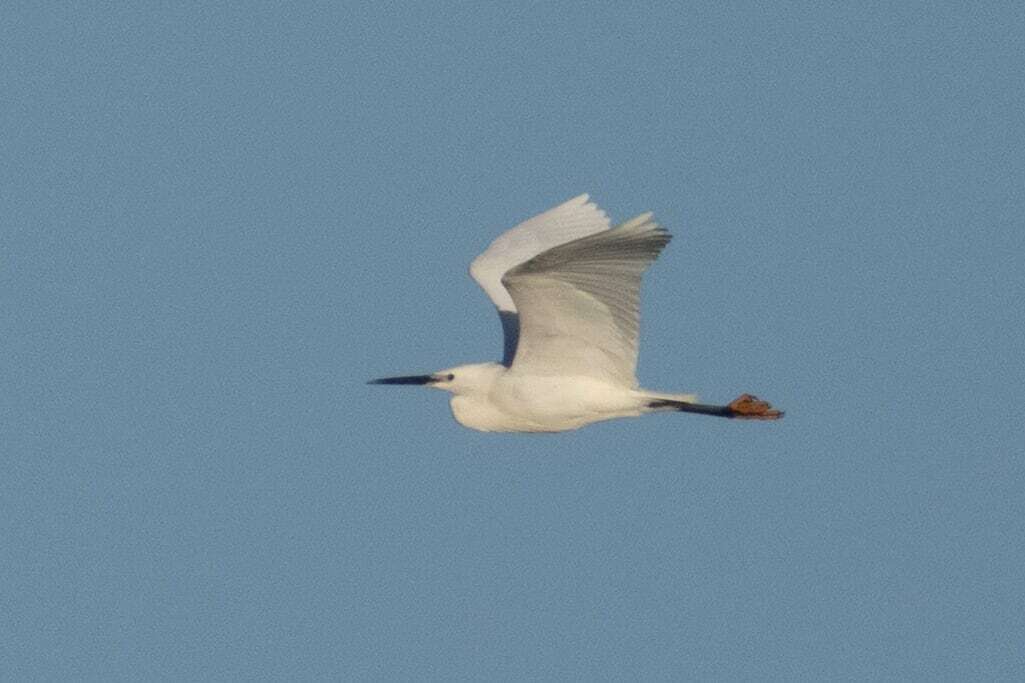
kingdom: Animalia
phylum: Chordata
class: Aves
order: Pelecaniformes
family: Ardeidae
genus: Egretta
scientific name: Egretta garzetta
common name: Little egret
